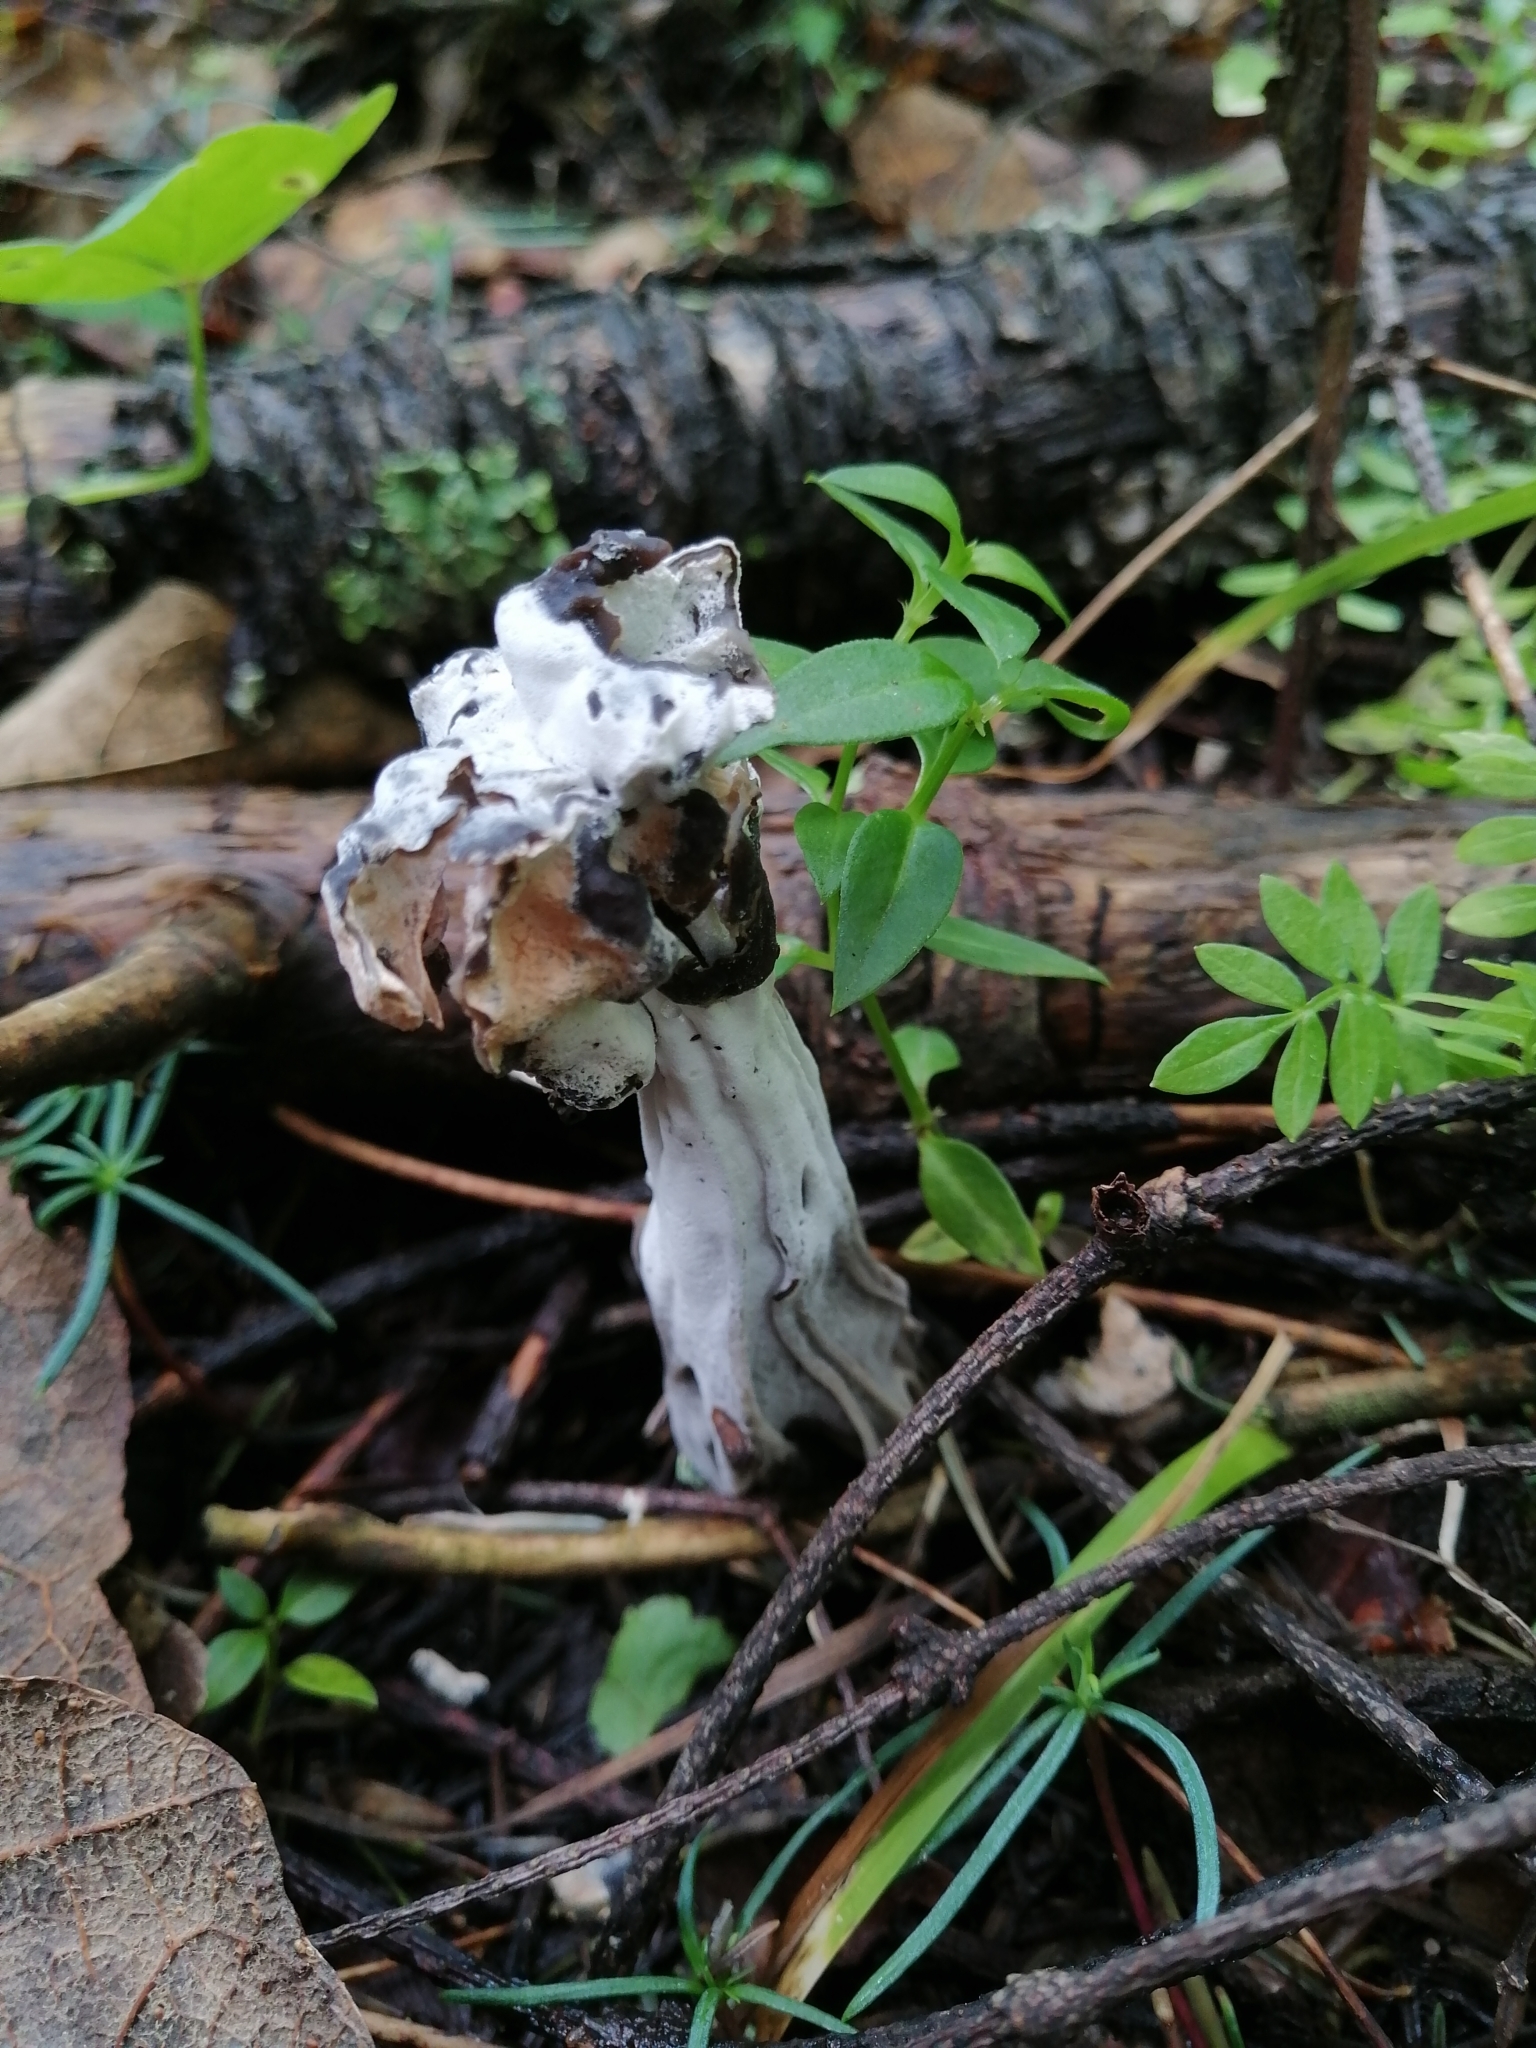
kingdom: Fungi
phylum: Ascomycota
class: Sordariomycetes
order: Hypocreales
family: Hypocreaceae
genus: Hypomyces
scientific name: Hypomyces cervinus
